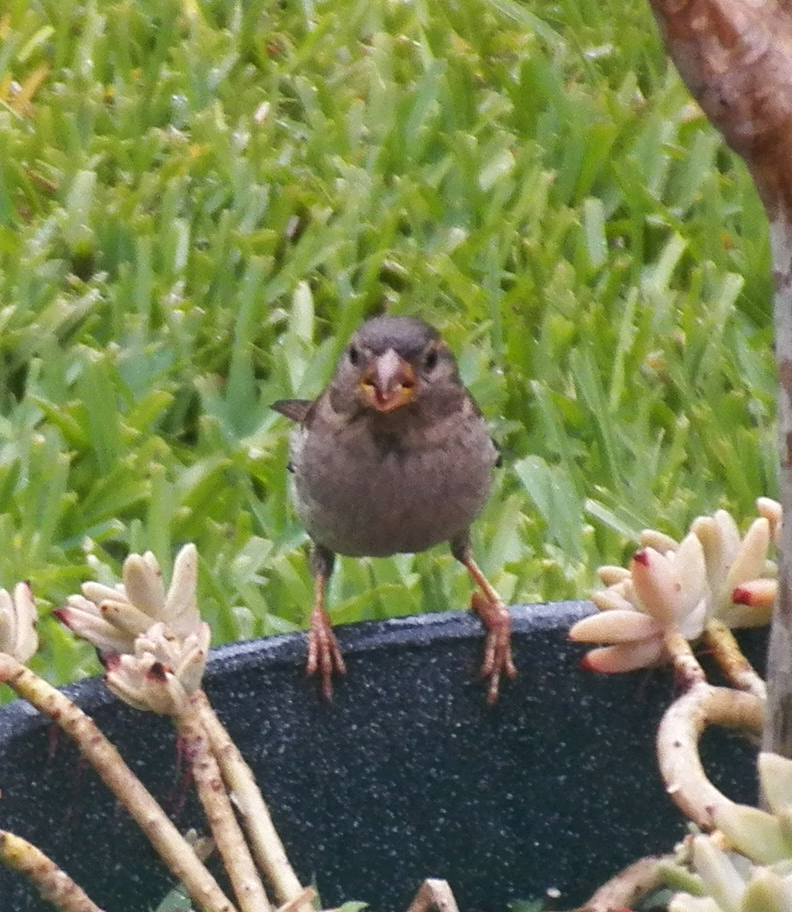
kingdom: Animalia
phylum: Chordata
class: Aves
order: Passeriformes
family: Passeridae
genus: Passer
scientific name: Passer domesticus
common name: House sparrow
